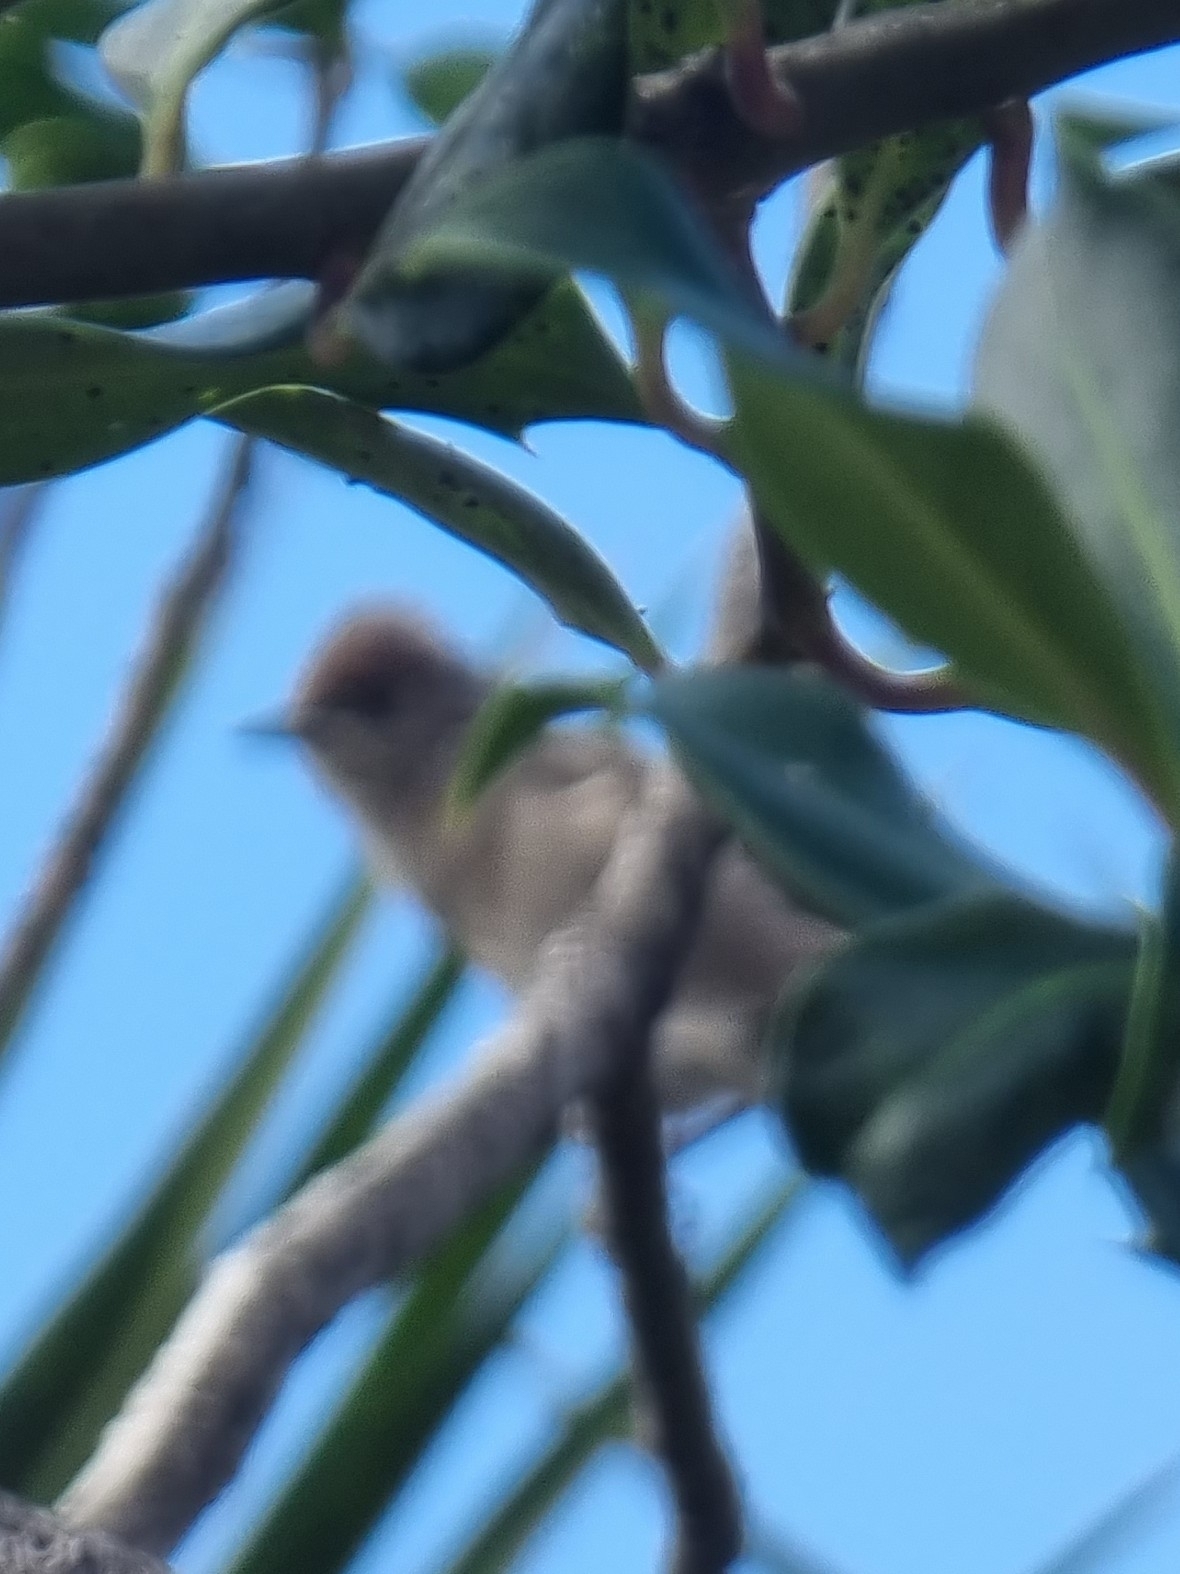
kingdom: Animalia
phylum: Chordata
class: Aves
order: Passeriformes
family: Sylviidae
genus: Sylvia
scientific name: Sylvia atricapilla
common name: Eurasian blackcap
